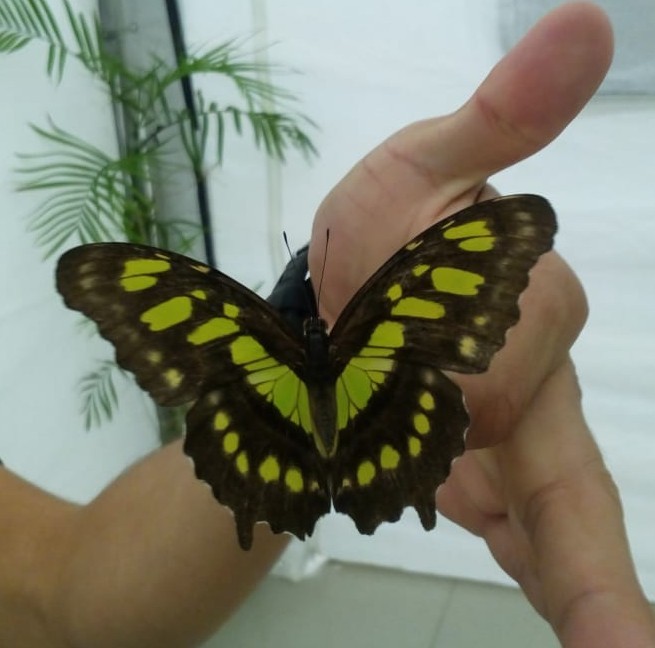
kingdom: Animalia
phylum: Arthropoda
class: Insecta
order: Lepidoptera
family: Nymphalidae
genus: Siproeta
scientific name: Siproeta stelenes
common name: Malachite
